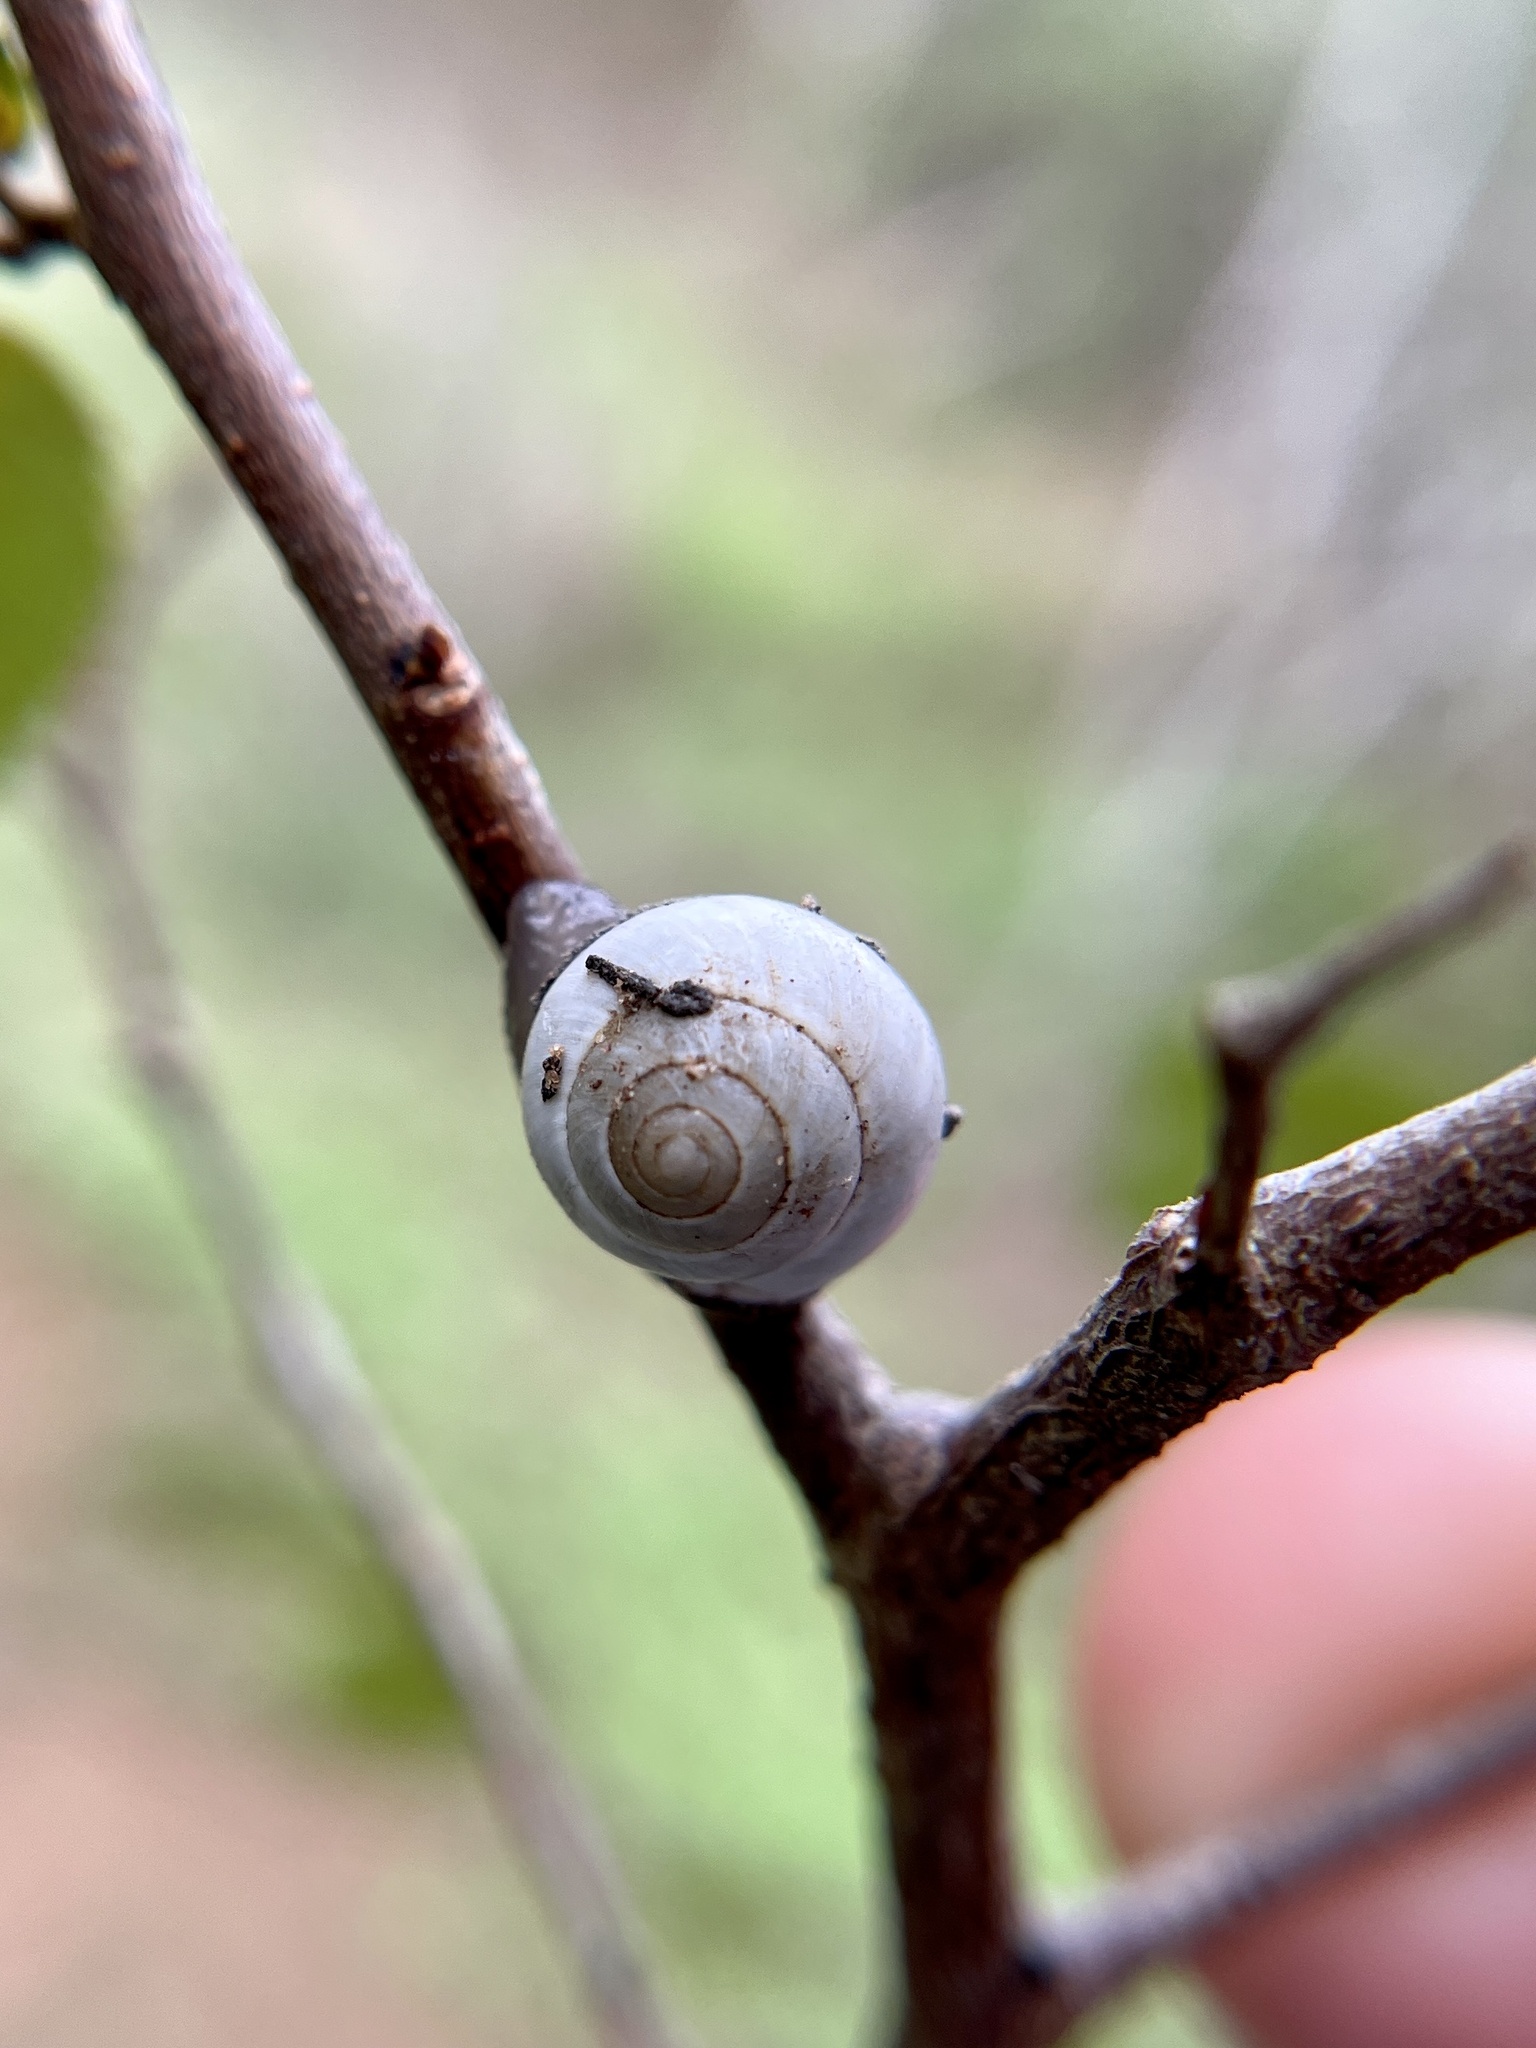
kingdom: Animalia
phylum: Mollusca
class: Gastropoda
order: Cycloneritida
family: Helicinidae
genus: Helicina
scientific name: Helicina orbiculata
